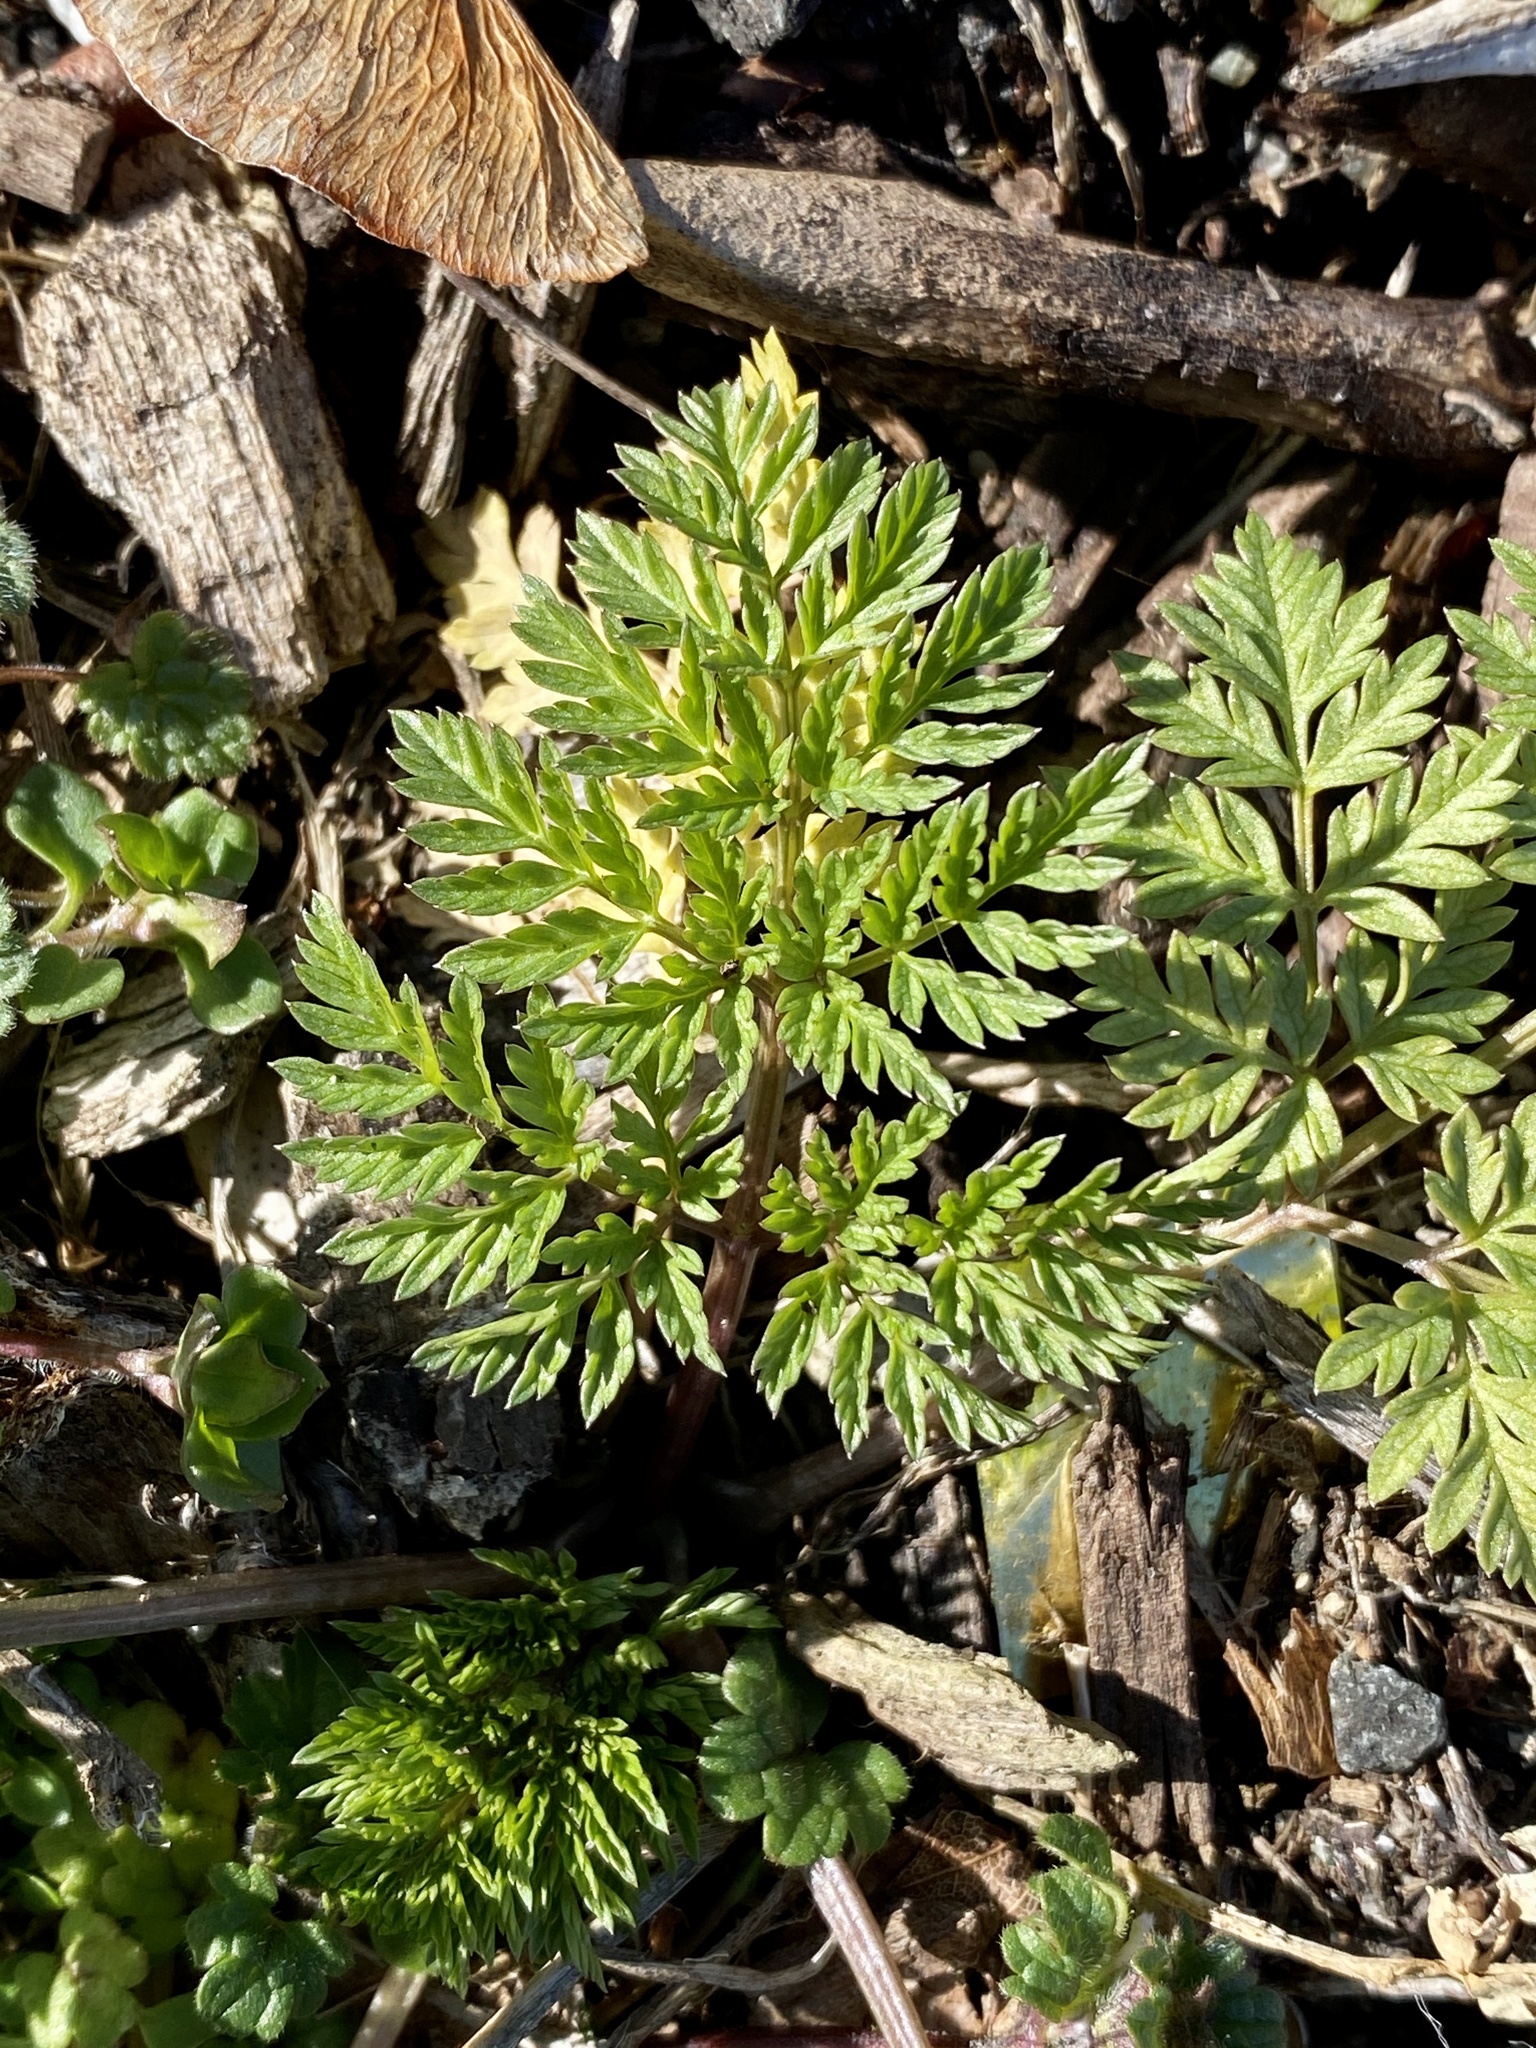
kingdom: Plantae
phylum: Tracheophyta
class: Magnoliopsida
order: Apiales
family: Apiaceae
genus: Conium
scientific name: Conium maculatum
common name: Hemlock
